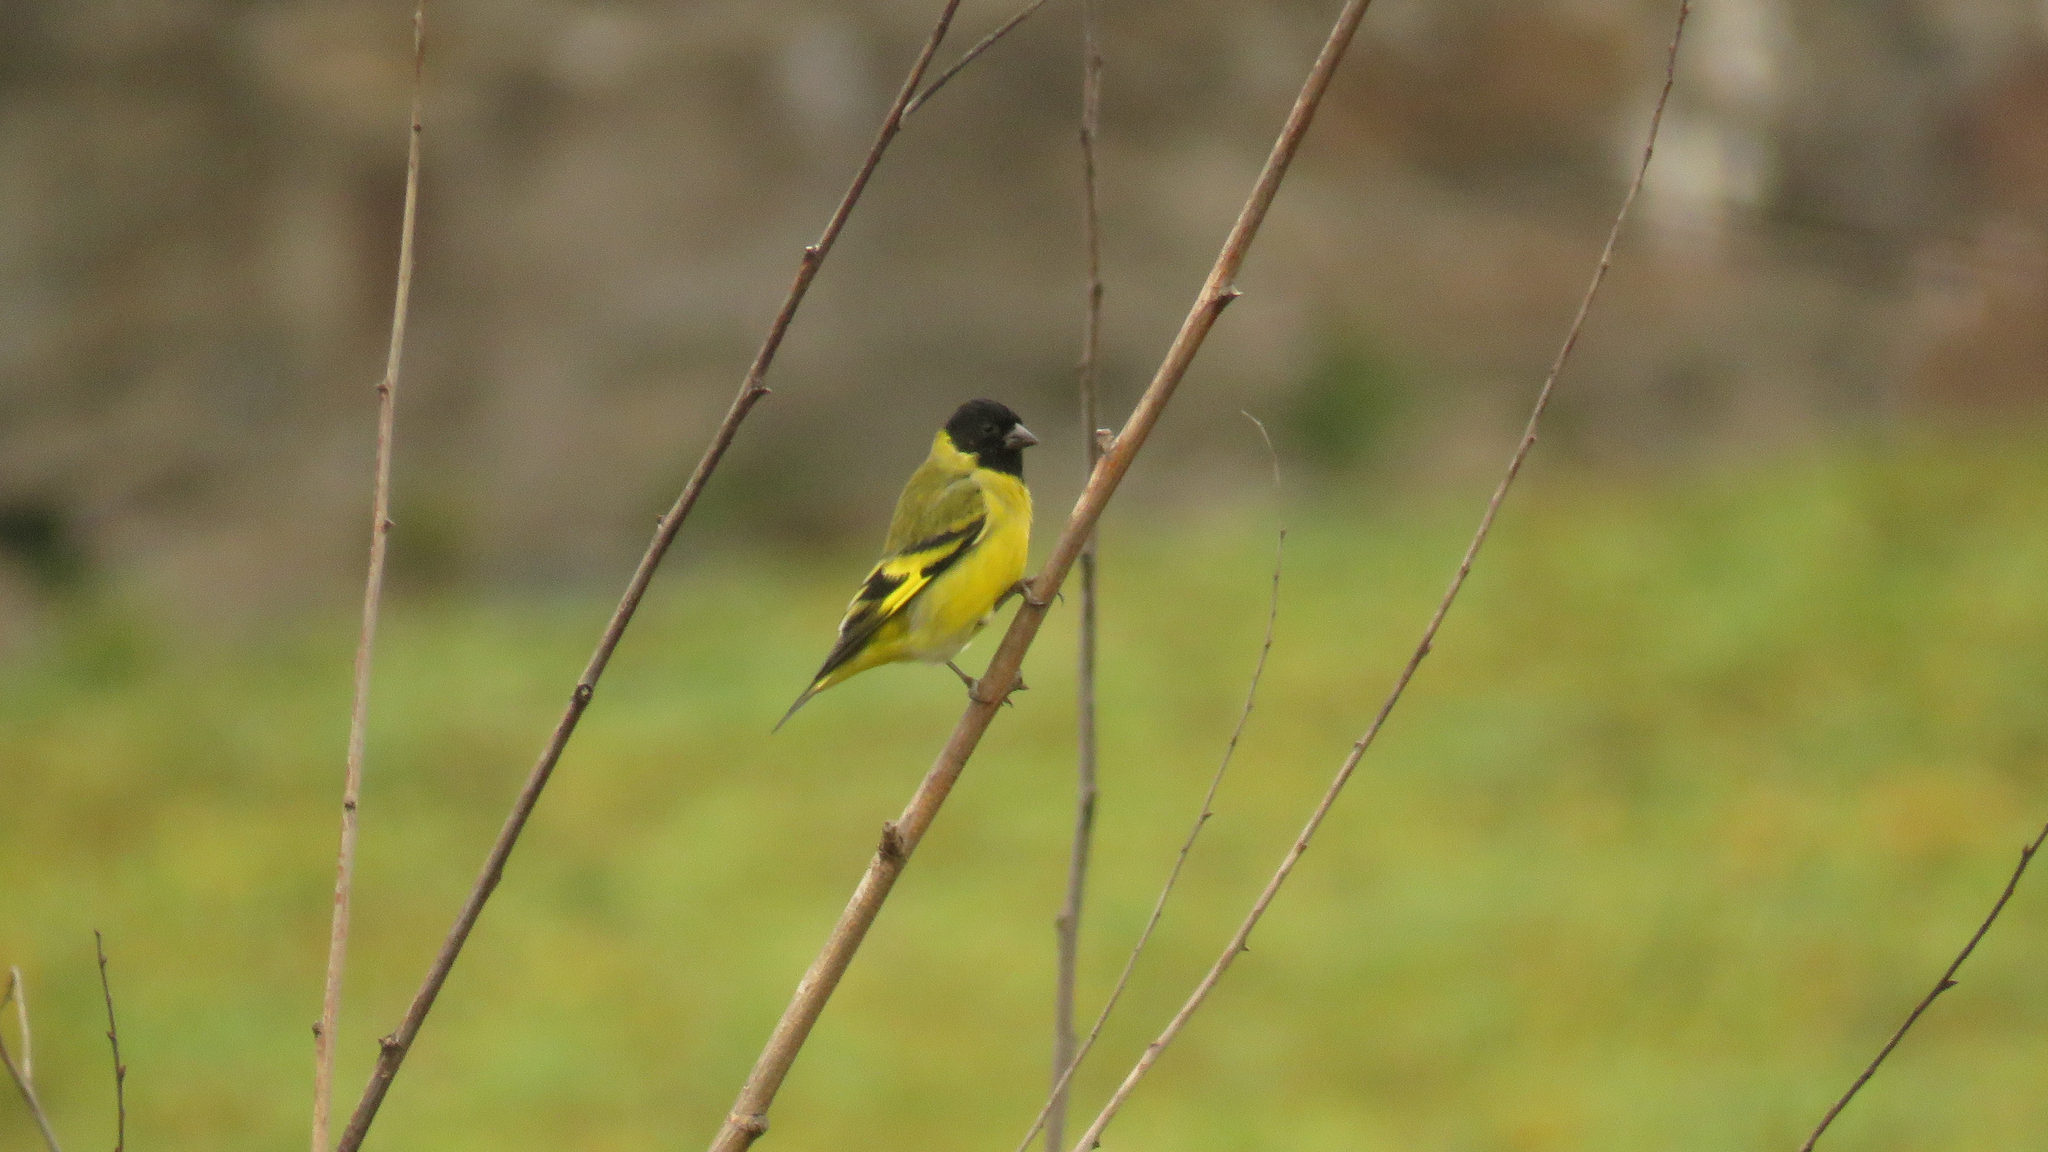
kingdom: Animalia
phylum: Chordata
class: Aves
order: Passeriformes
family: Fringillidae
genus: Spinus
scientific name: Spinus magellanicus
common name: Hooded siskin
